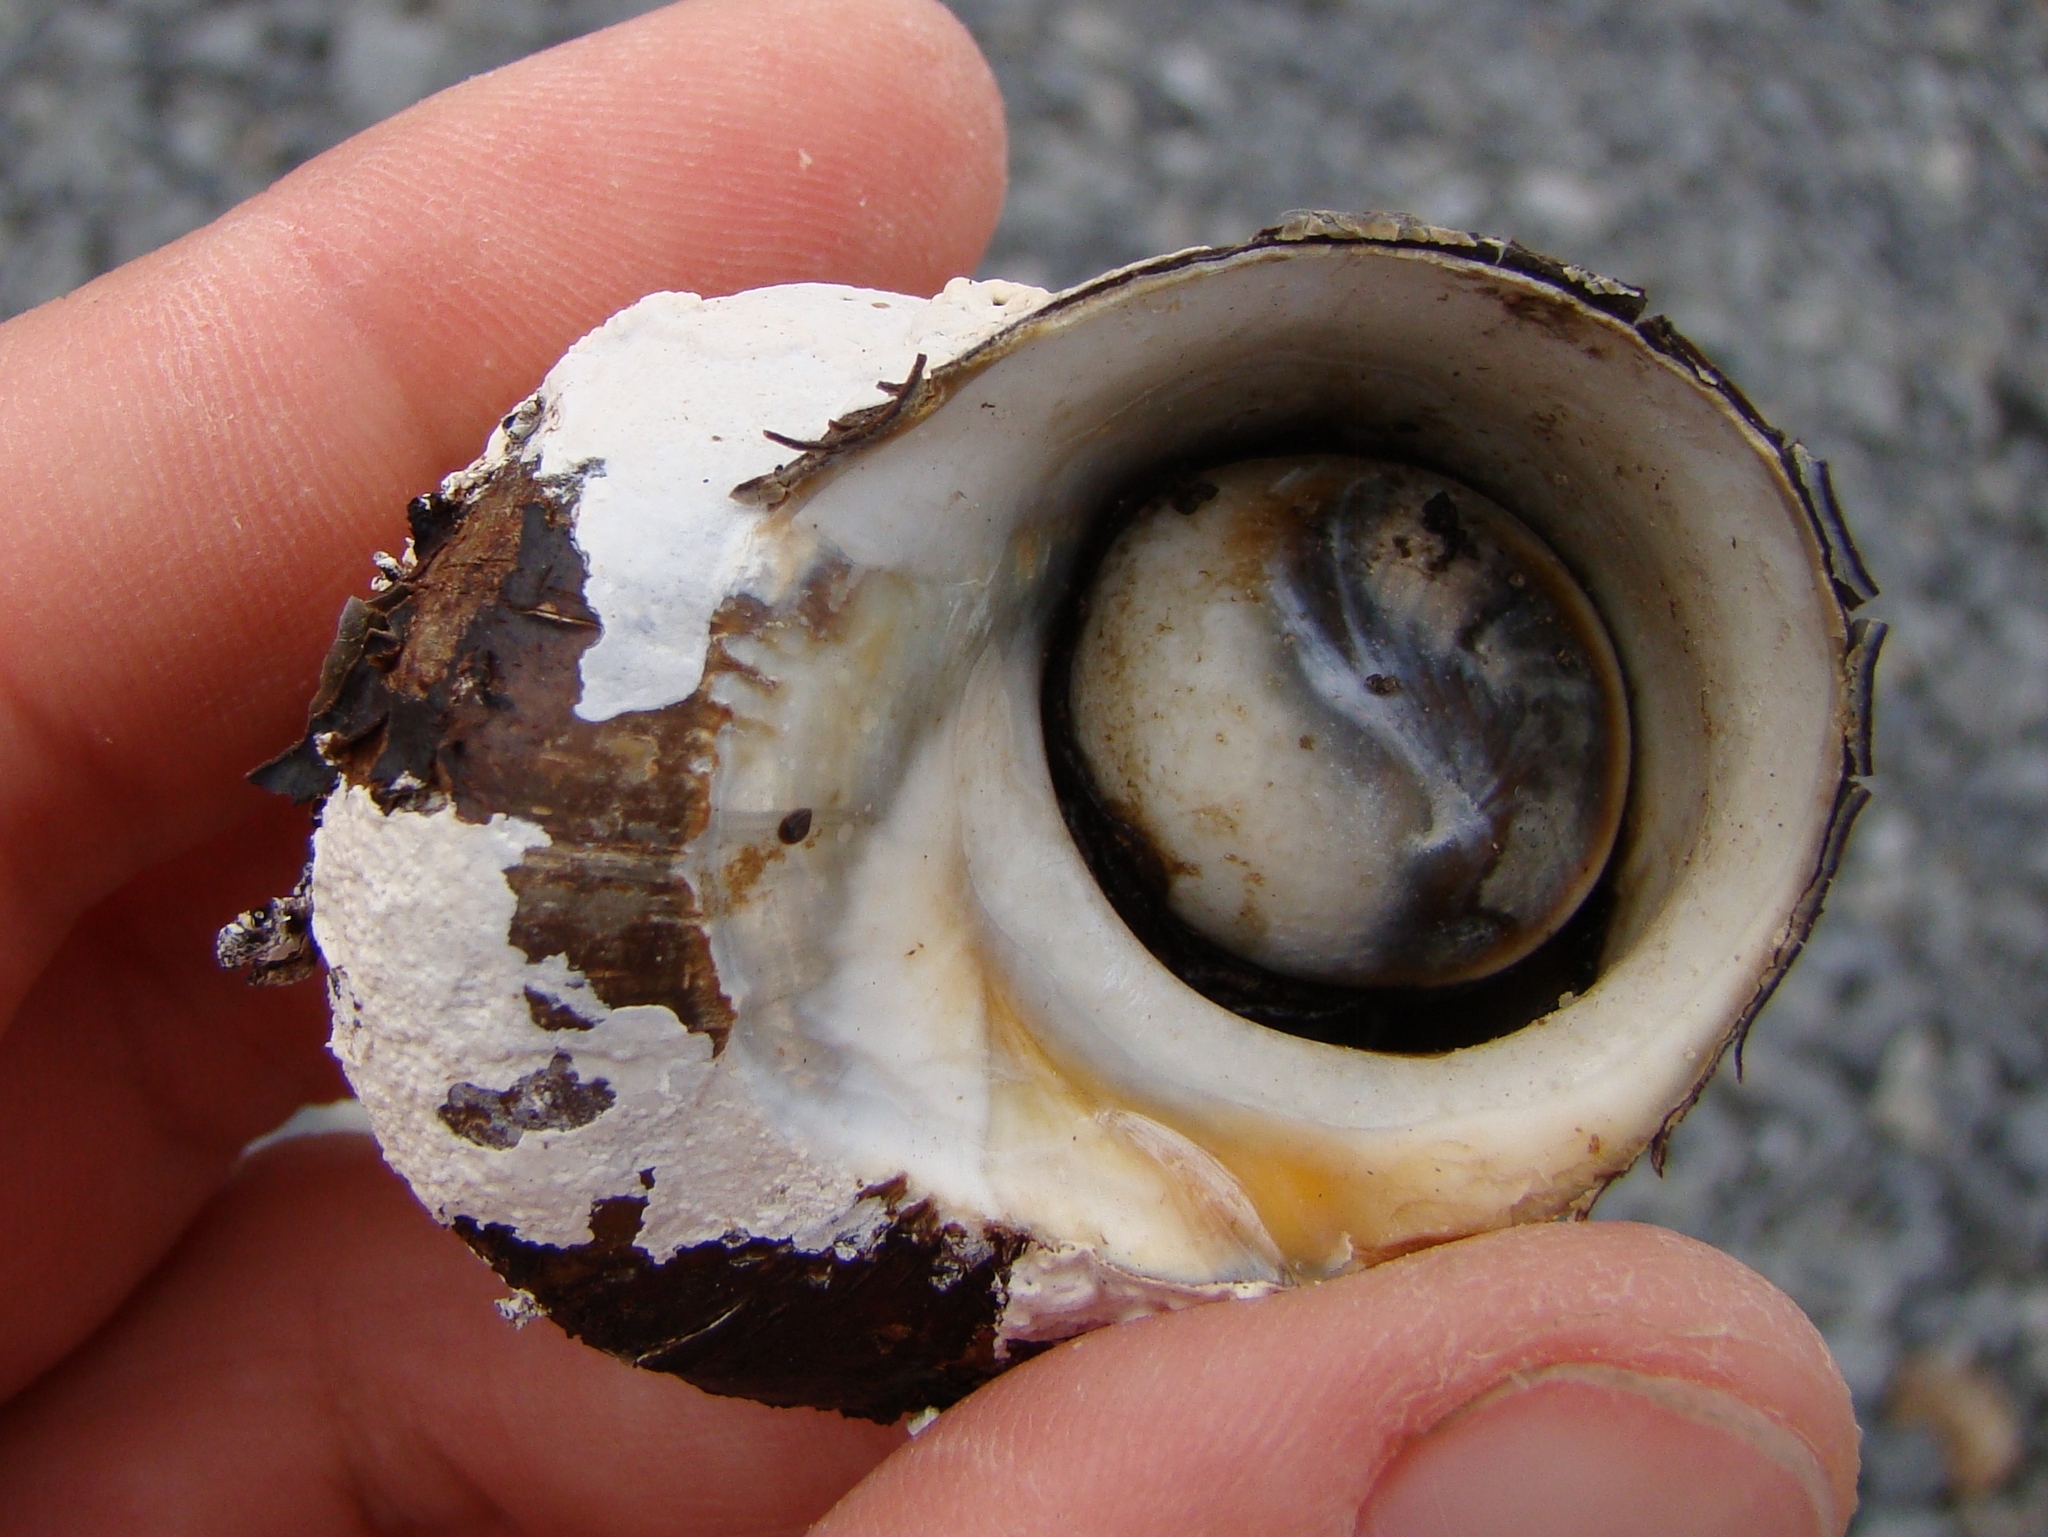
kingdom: Animalia
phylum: Mollusca
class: Gastropoda
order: Trochida
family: Turbinidae
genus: Lunella
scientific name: Lunella smaragda
